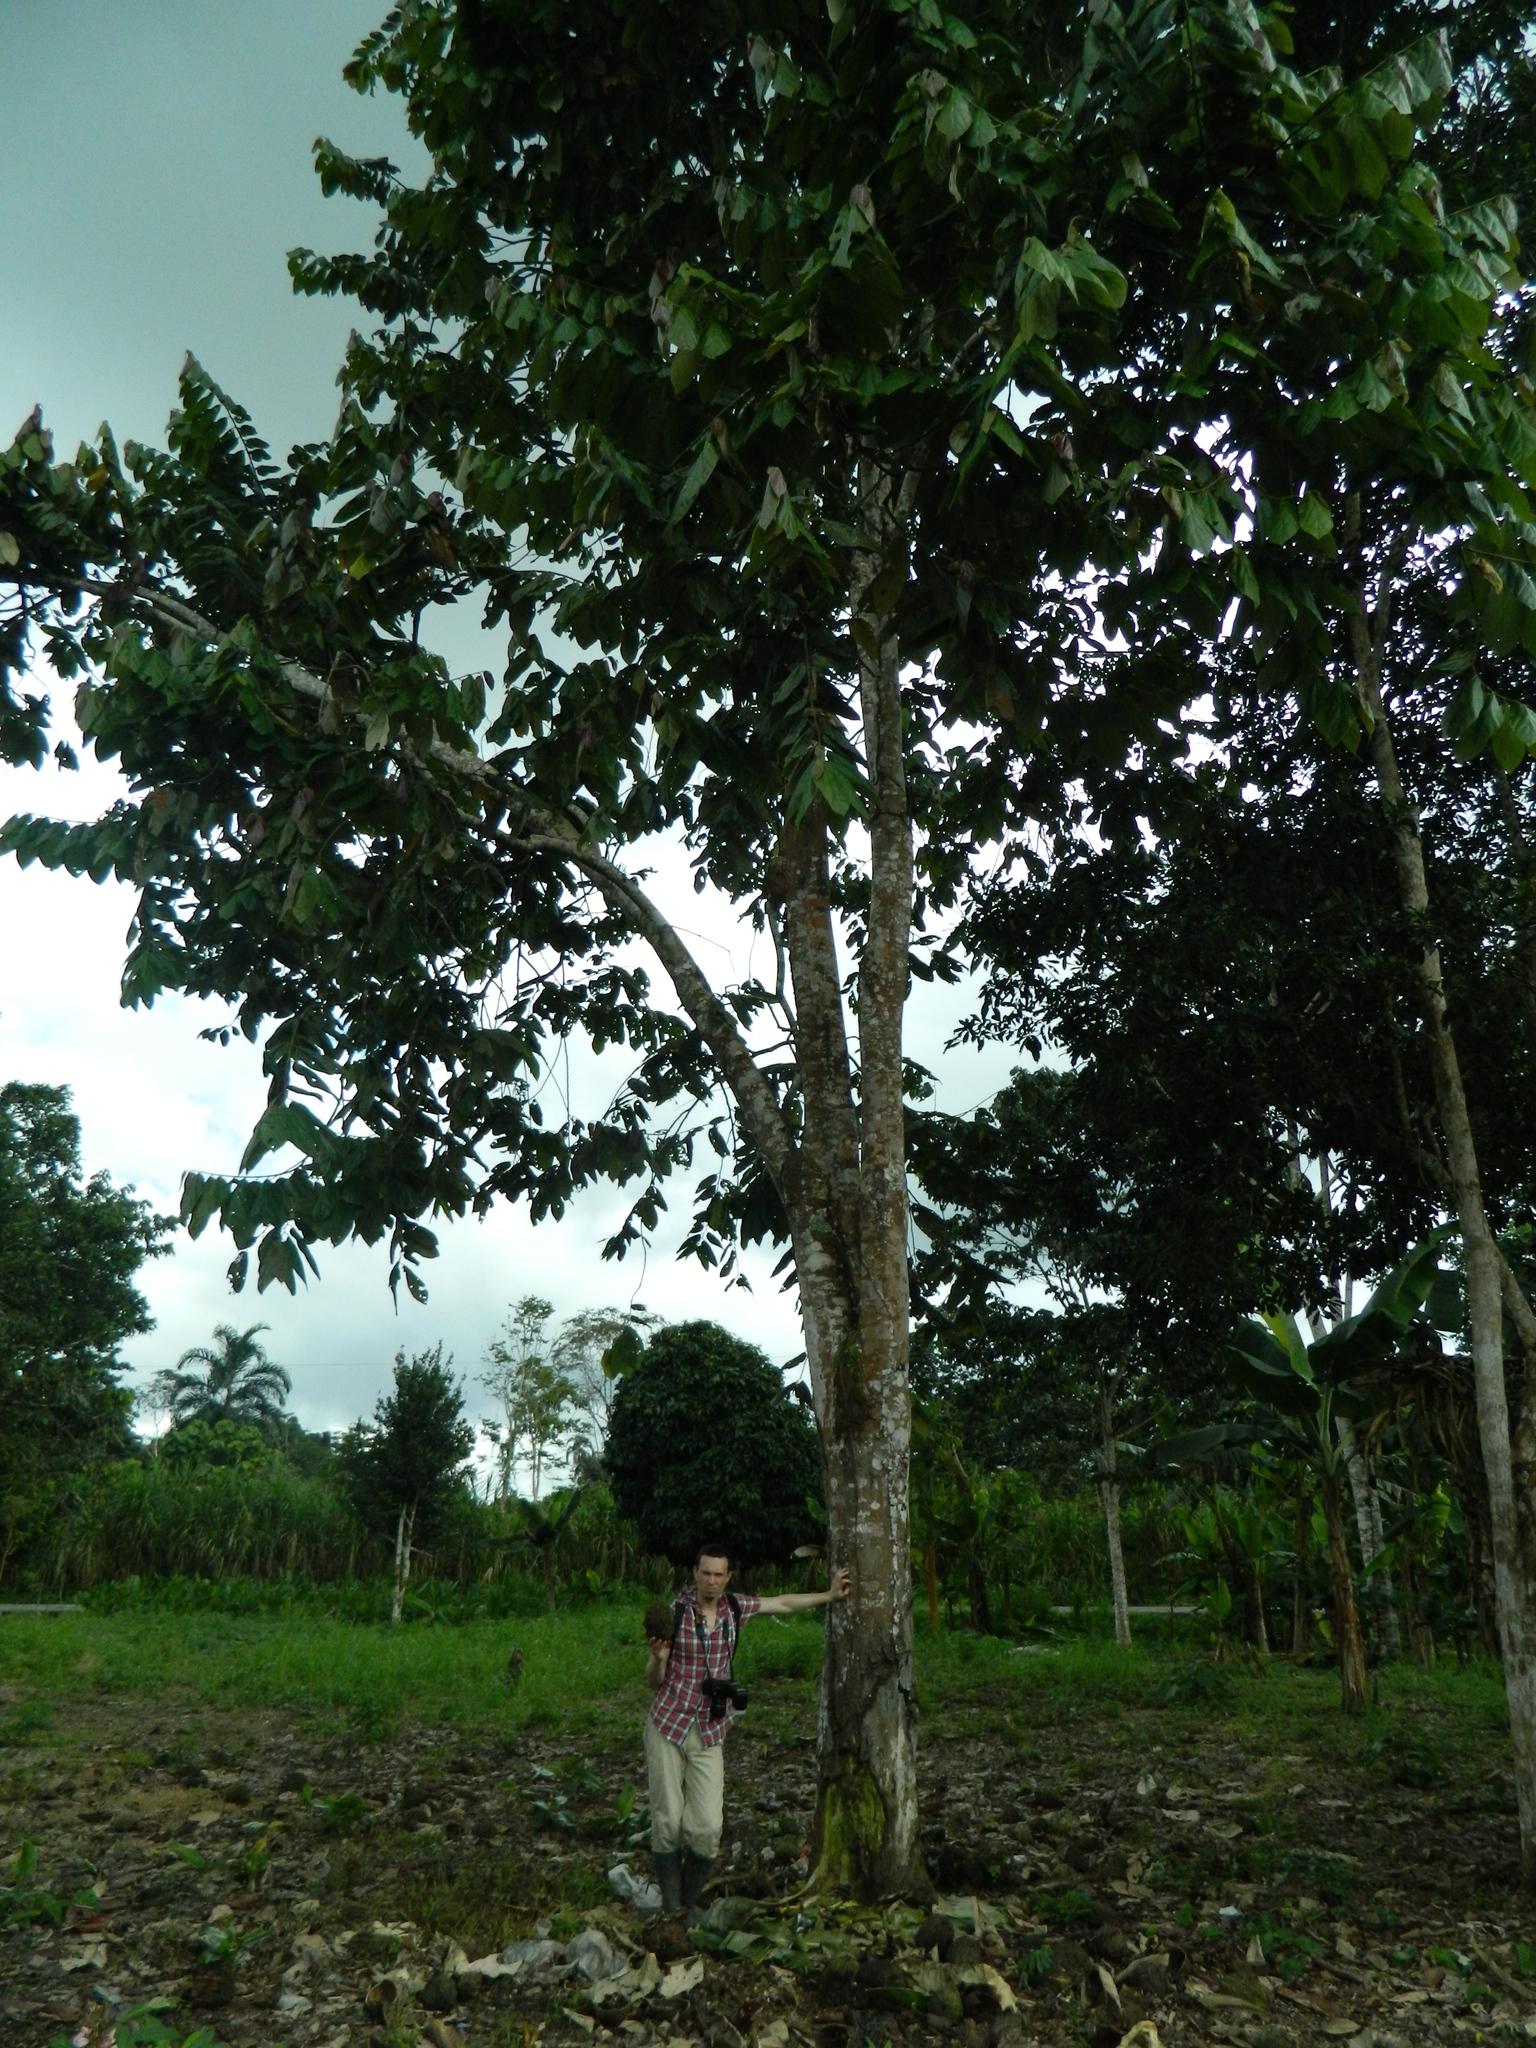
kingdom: Plantae
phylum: Tracheophyta
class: Magnoliopsida
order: Malvales
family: Malvaceae
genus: Theobroma
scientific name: Theobroma bicolor
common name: Macambo tree
